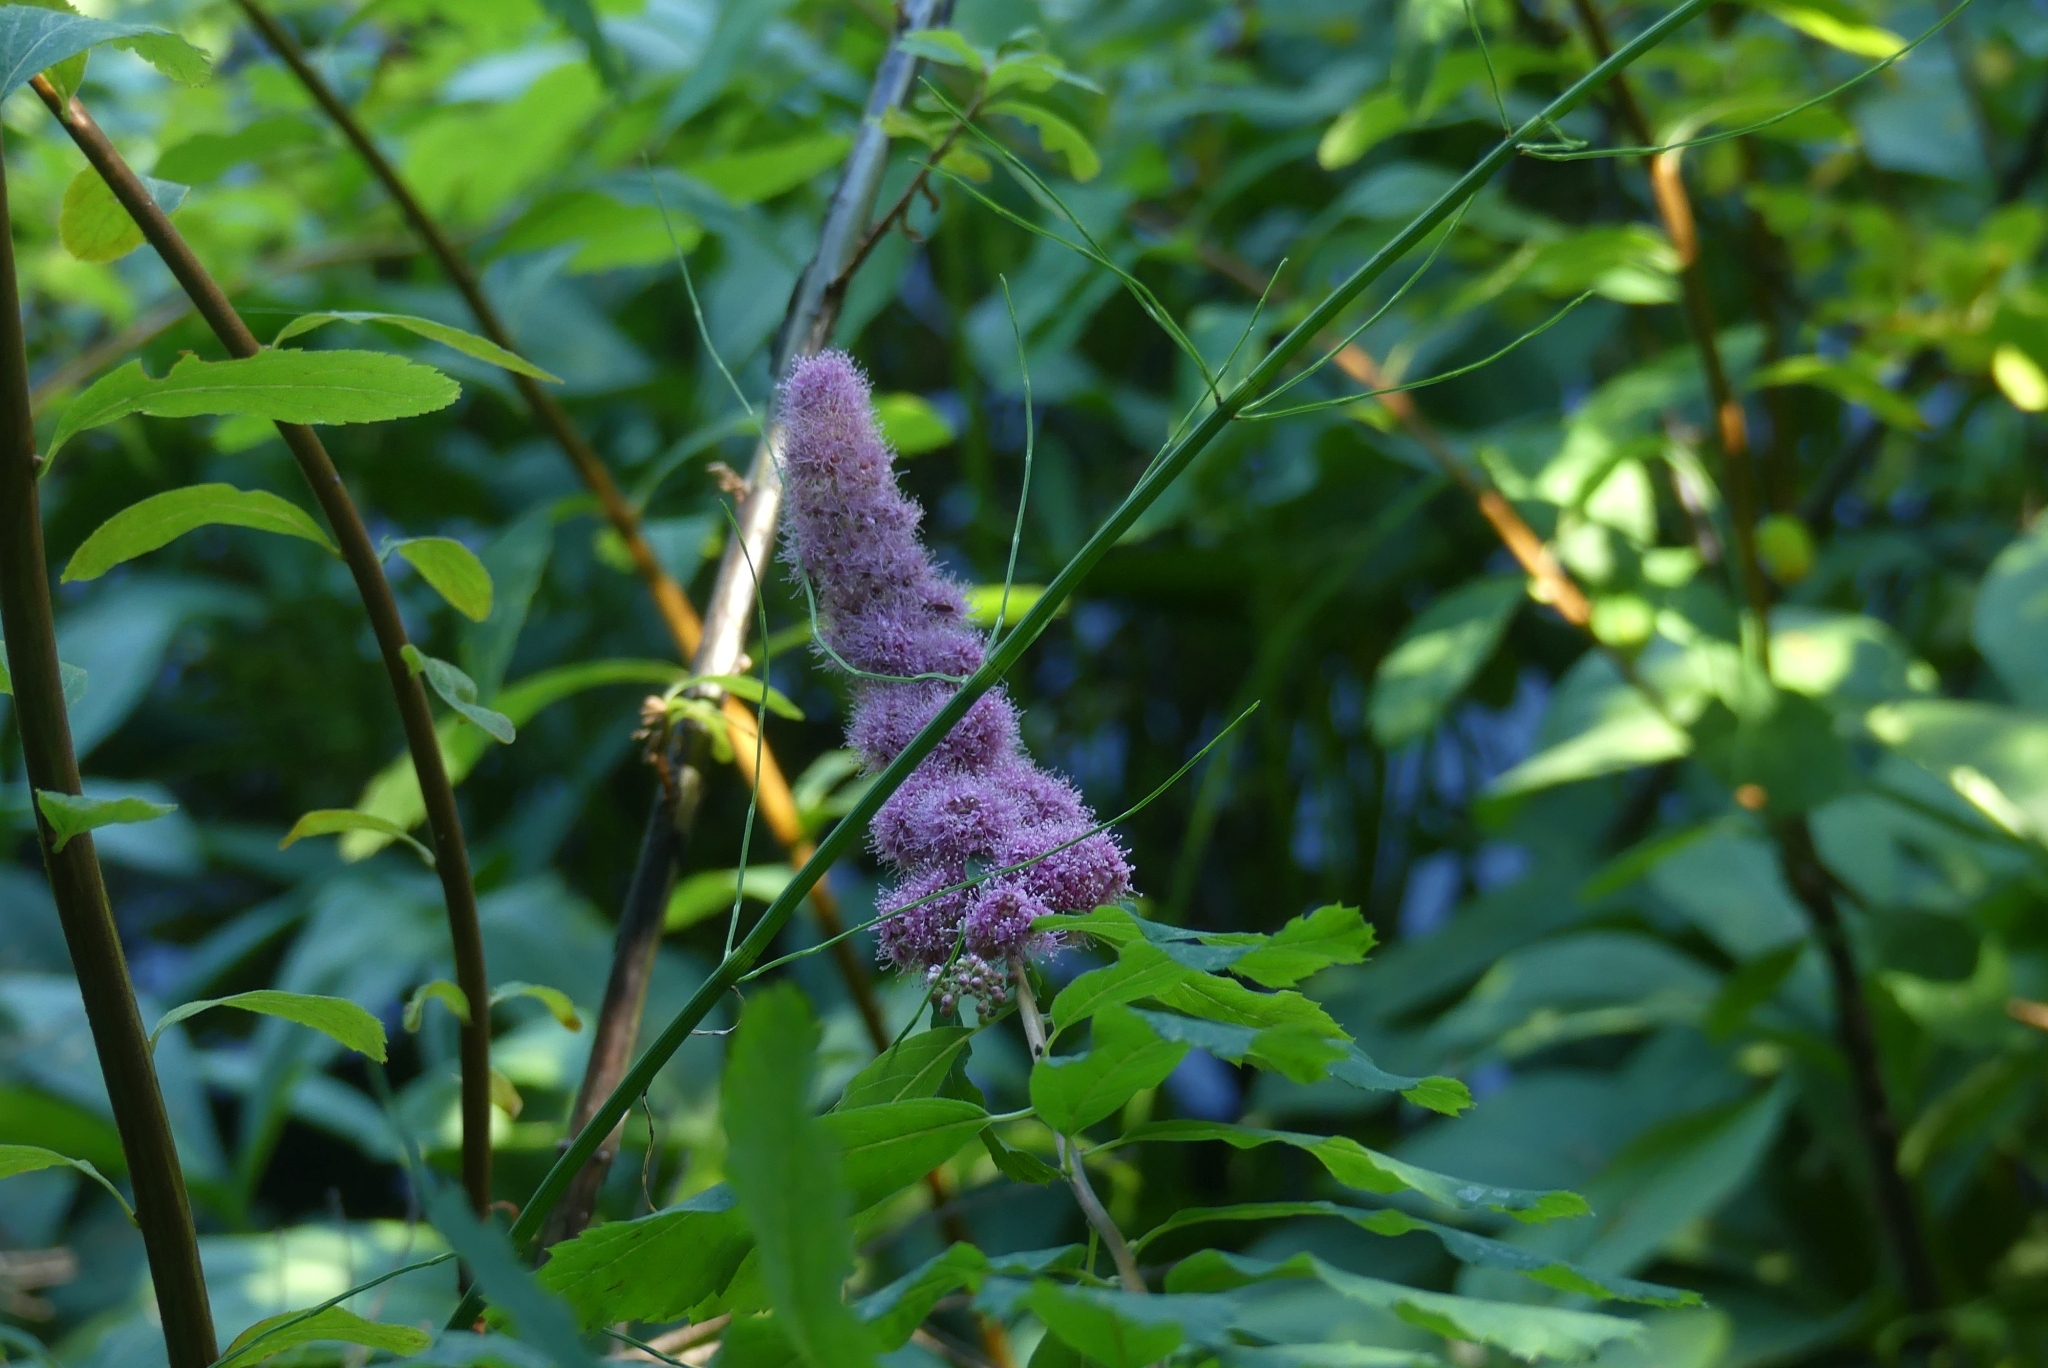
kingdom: Plantae
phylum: Tracheophyta
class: Magnoliopsida
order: Rosales
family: Rosaceae
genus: Spiraea
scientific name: Spiraea douglasii
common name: Steeplebush
